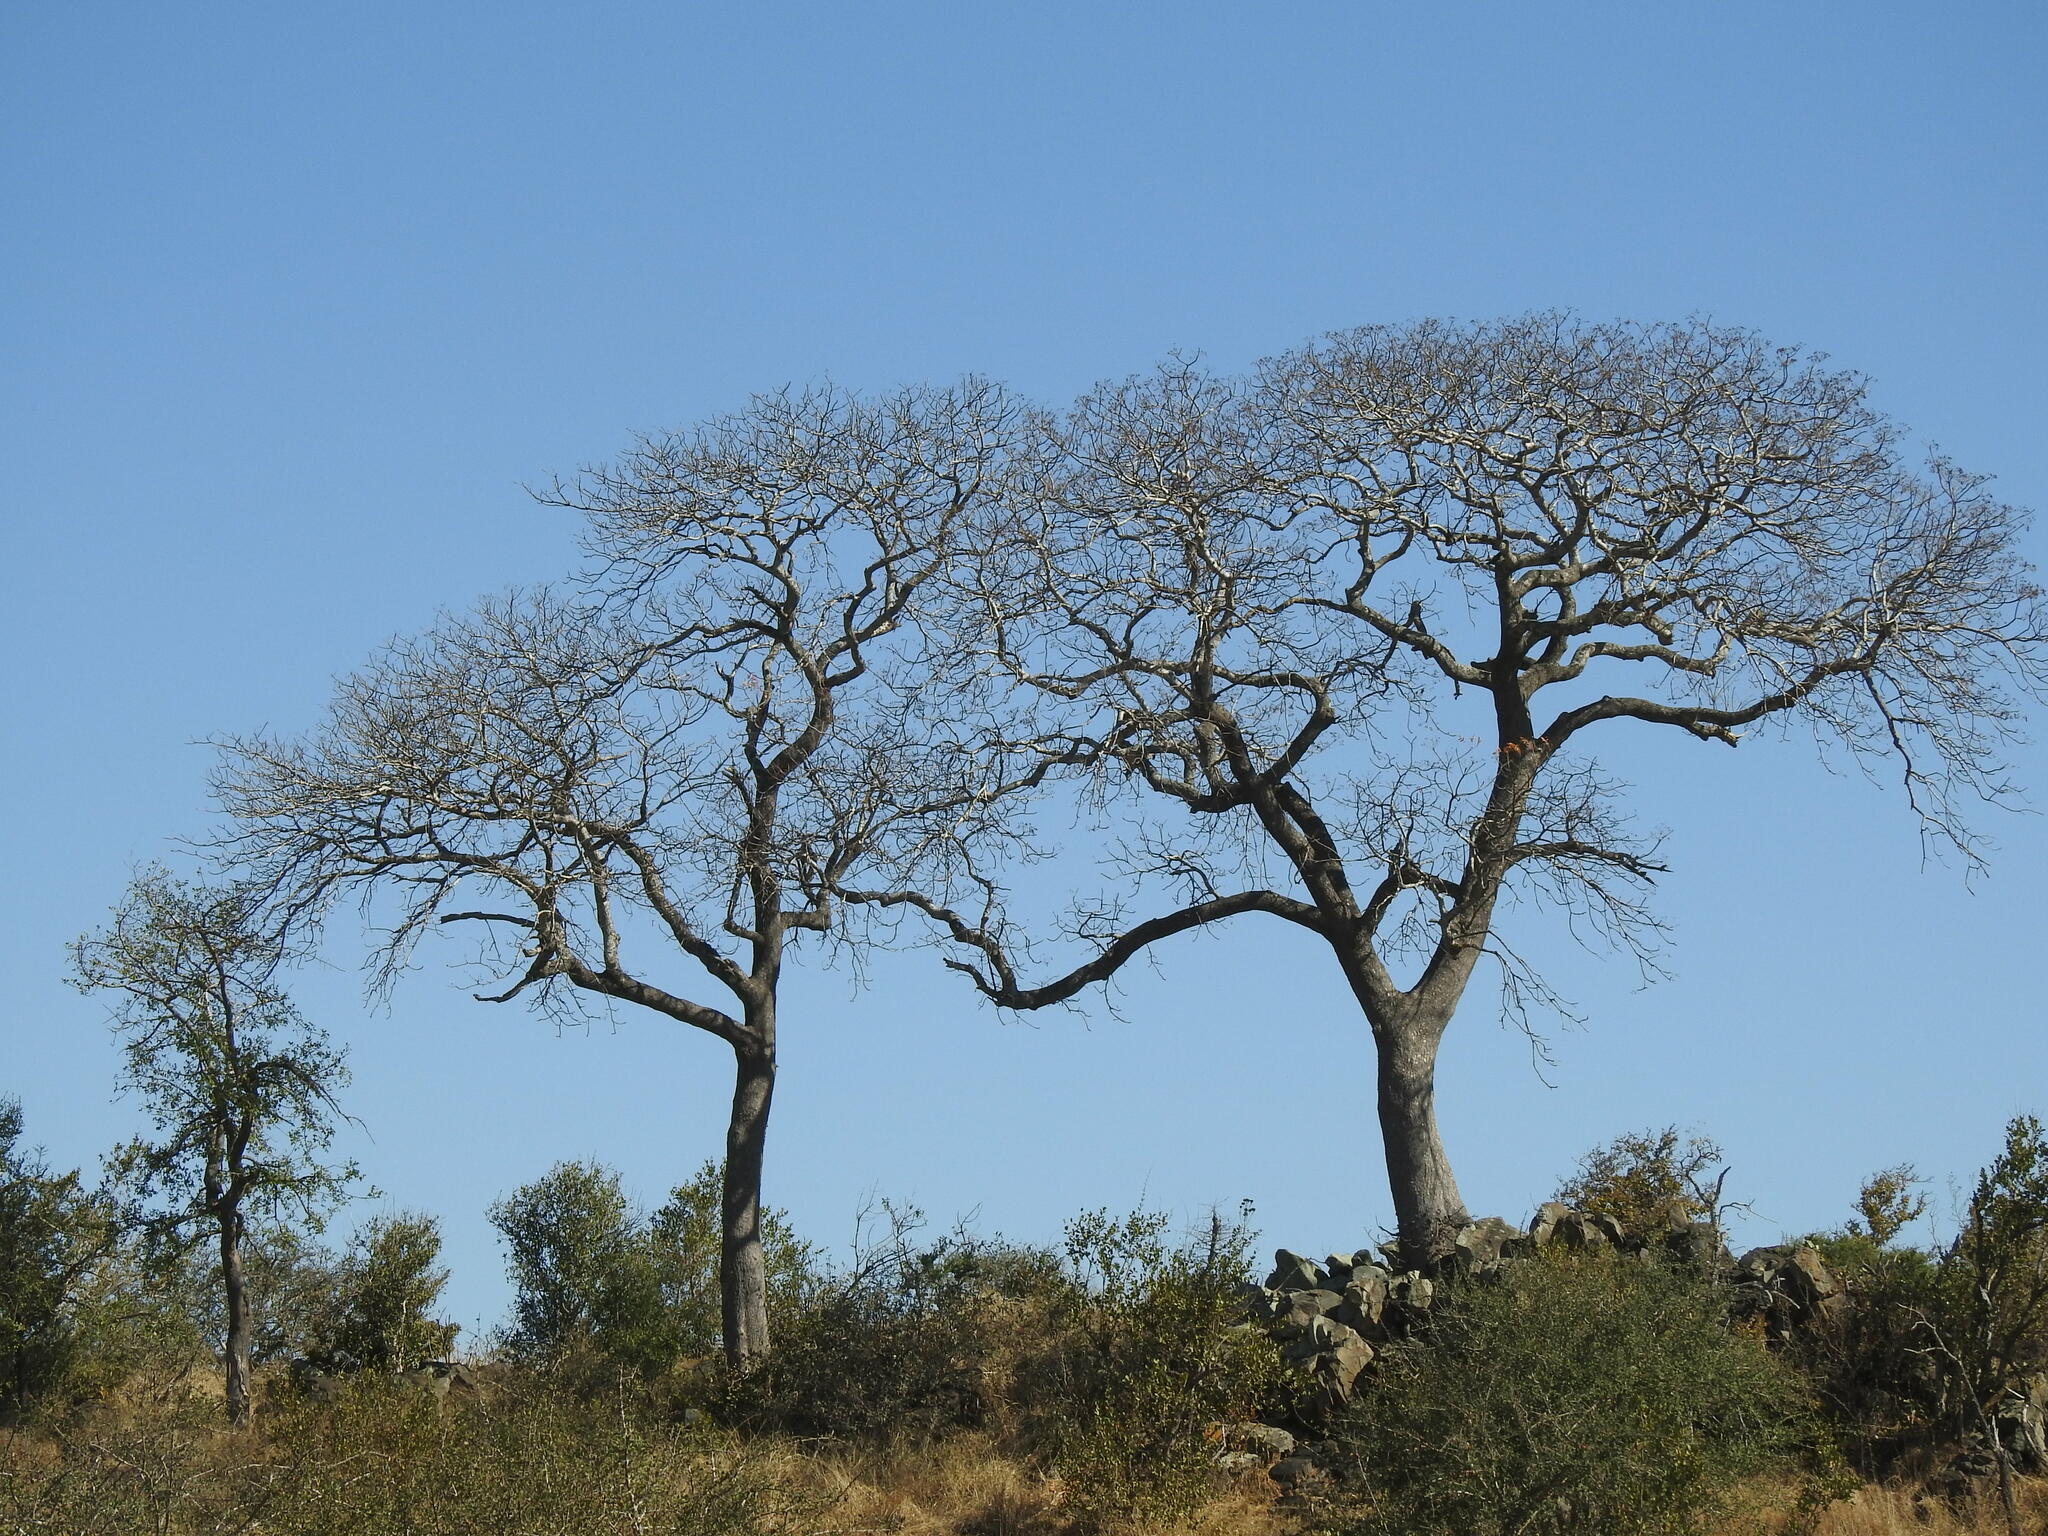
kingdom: Plantae
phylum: Tracheophyta
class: Magnoliopsida
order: Sapindales
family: Kirkiaceae
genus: Kirkia
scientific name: Kirkia acuminata
